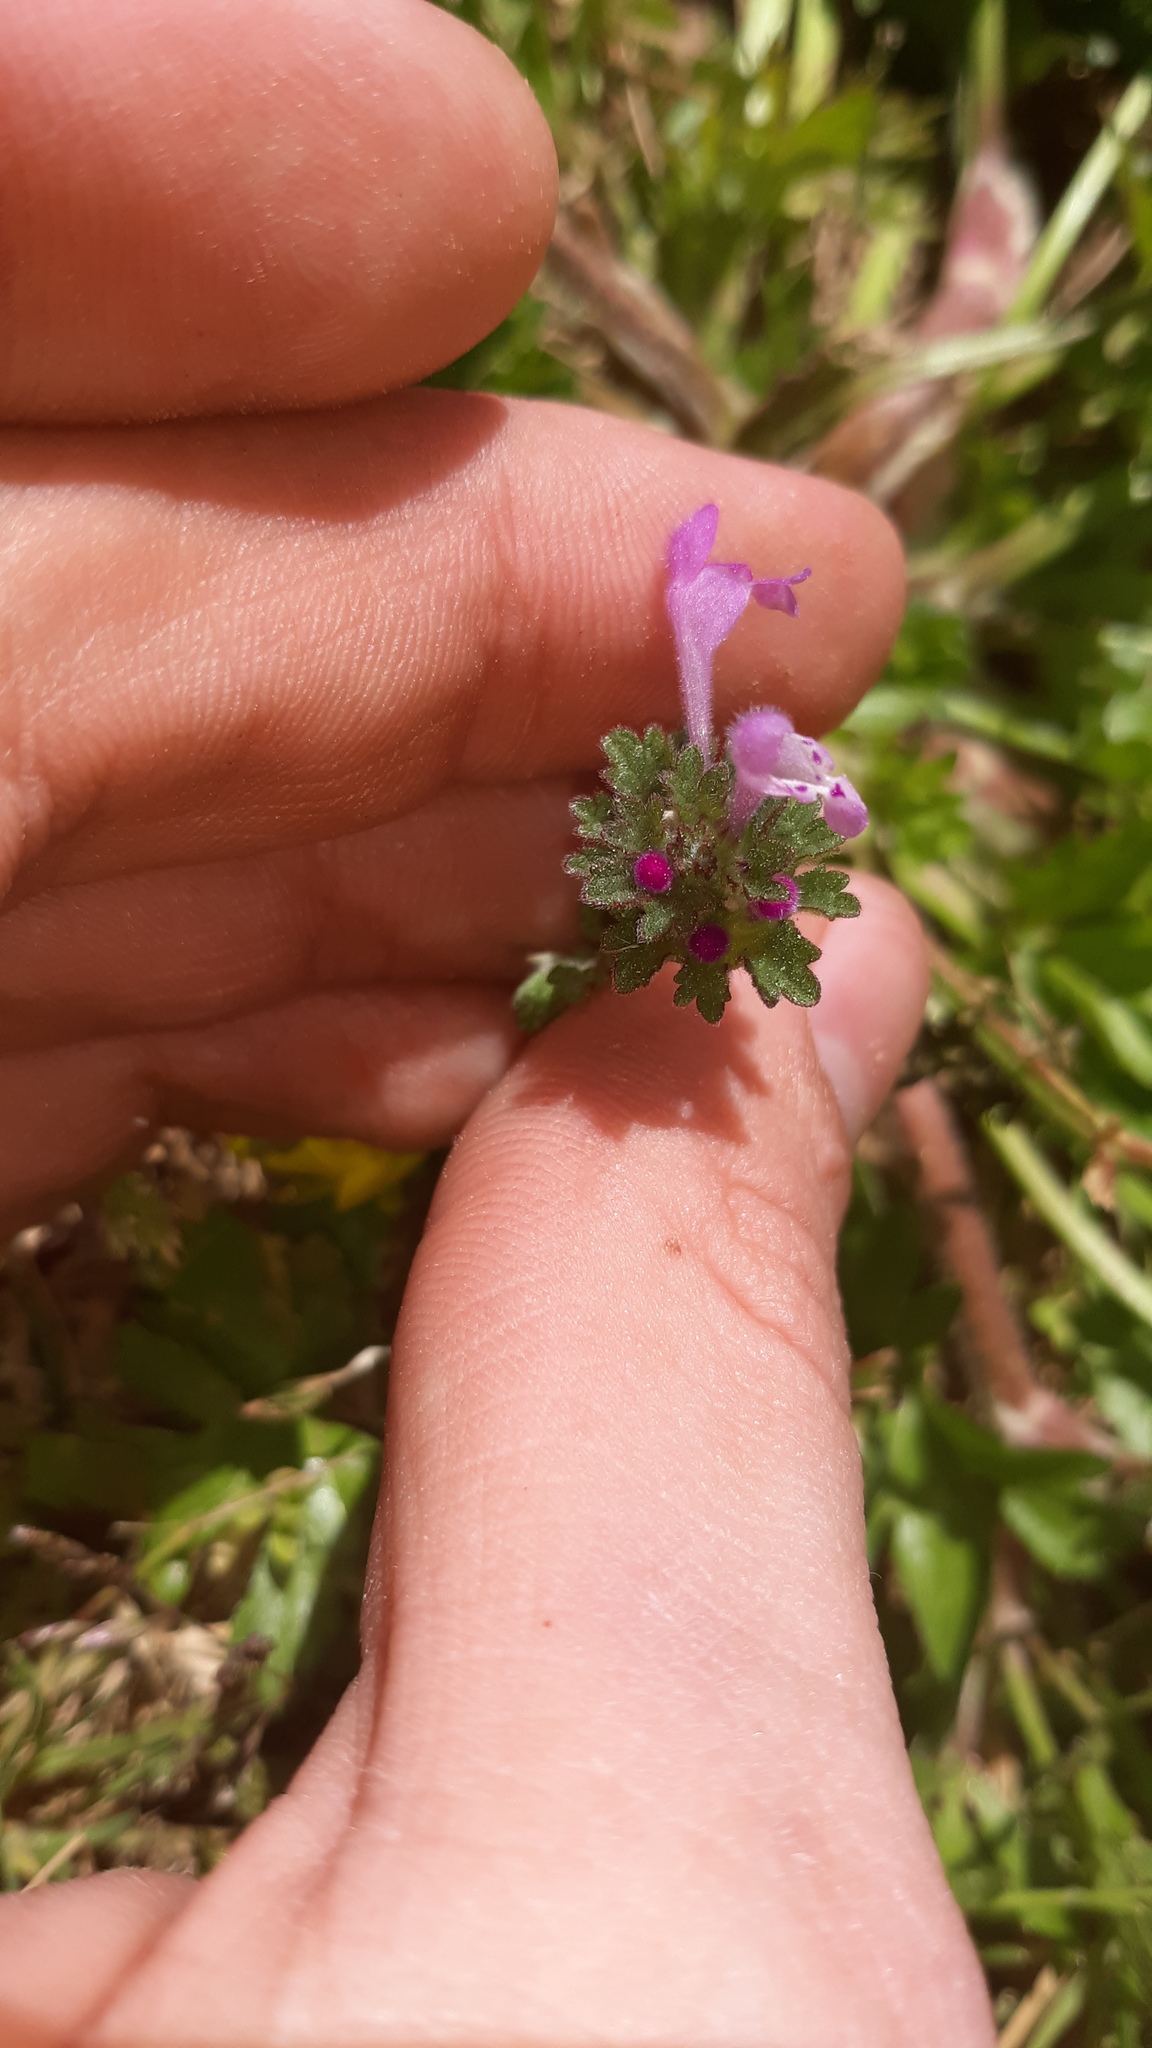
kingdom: Plantae
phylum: Tracheophyta
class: Magnoliopsida
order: Lamiales
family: Lamiaceae
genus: Lamium
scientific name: Lamium amplexicaule
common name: Henbit dead-nettle
